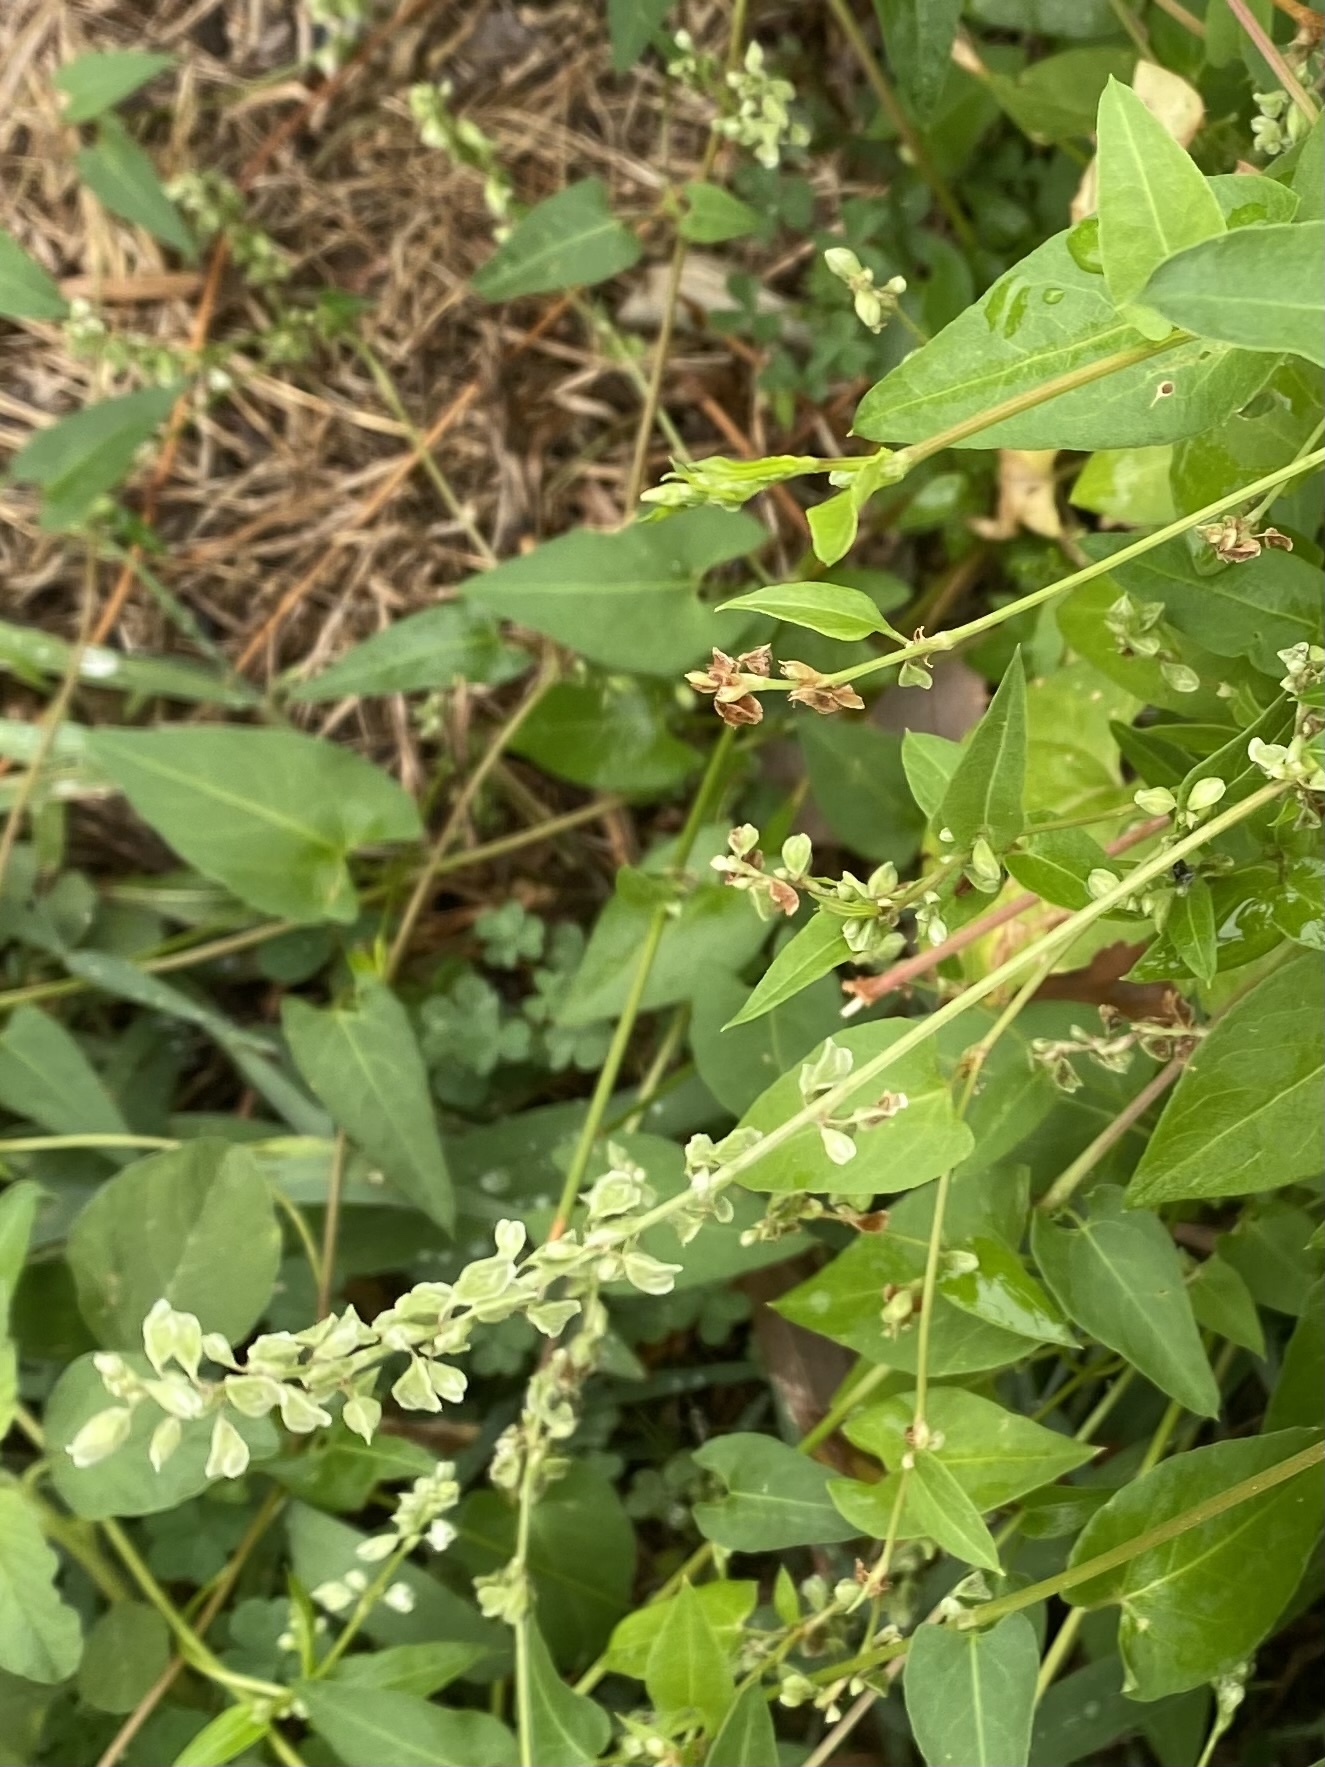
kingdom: Plantae
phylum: Tracheophyta
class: Magnoliopsida
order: Caryophyllales
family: Polygonaceae
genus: Fallopia
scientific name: Fallopia scandens
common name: Climbing false buckwheat
